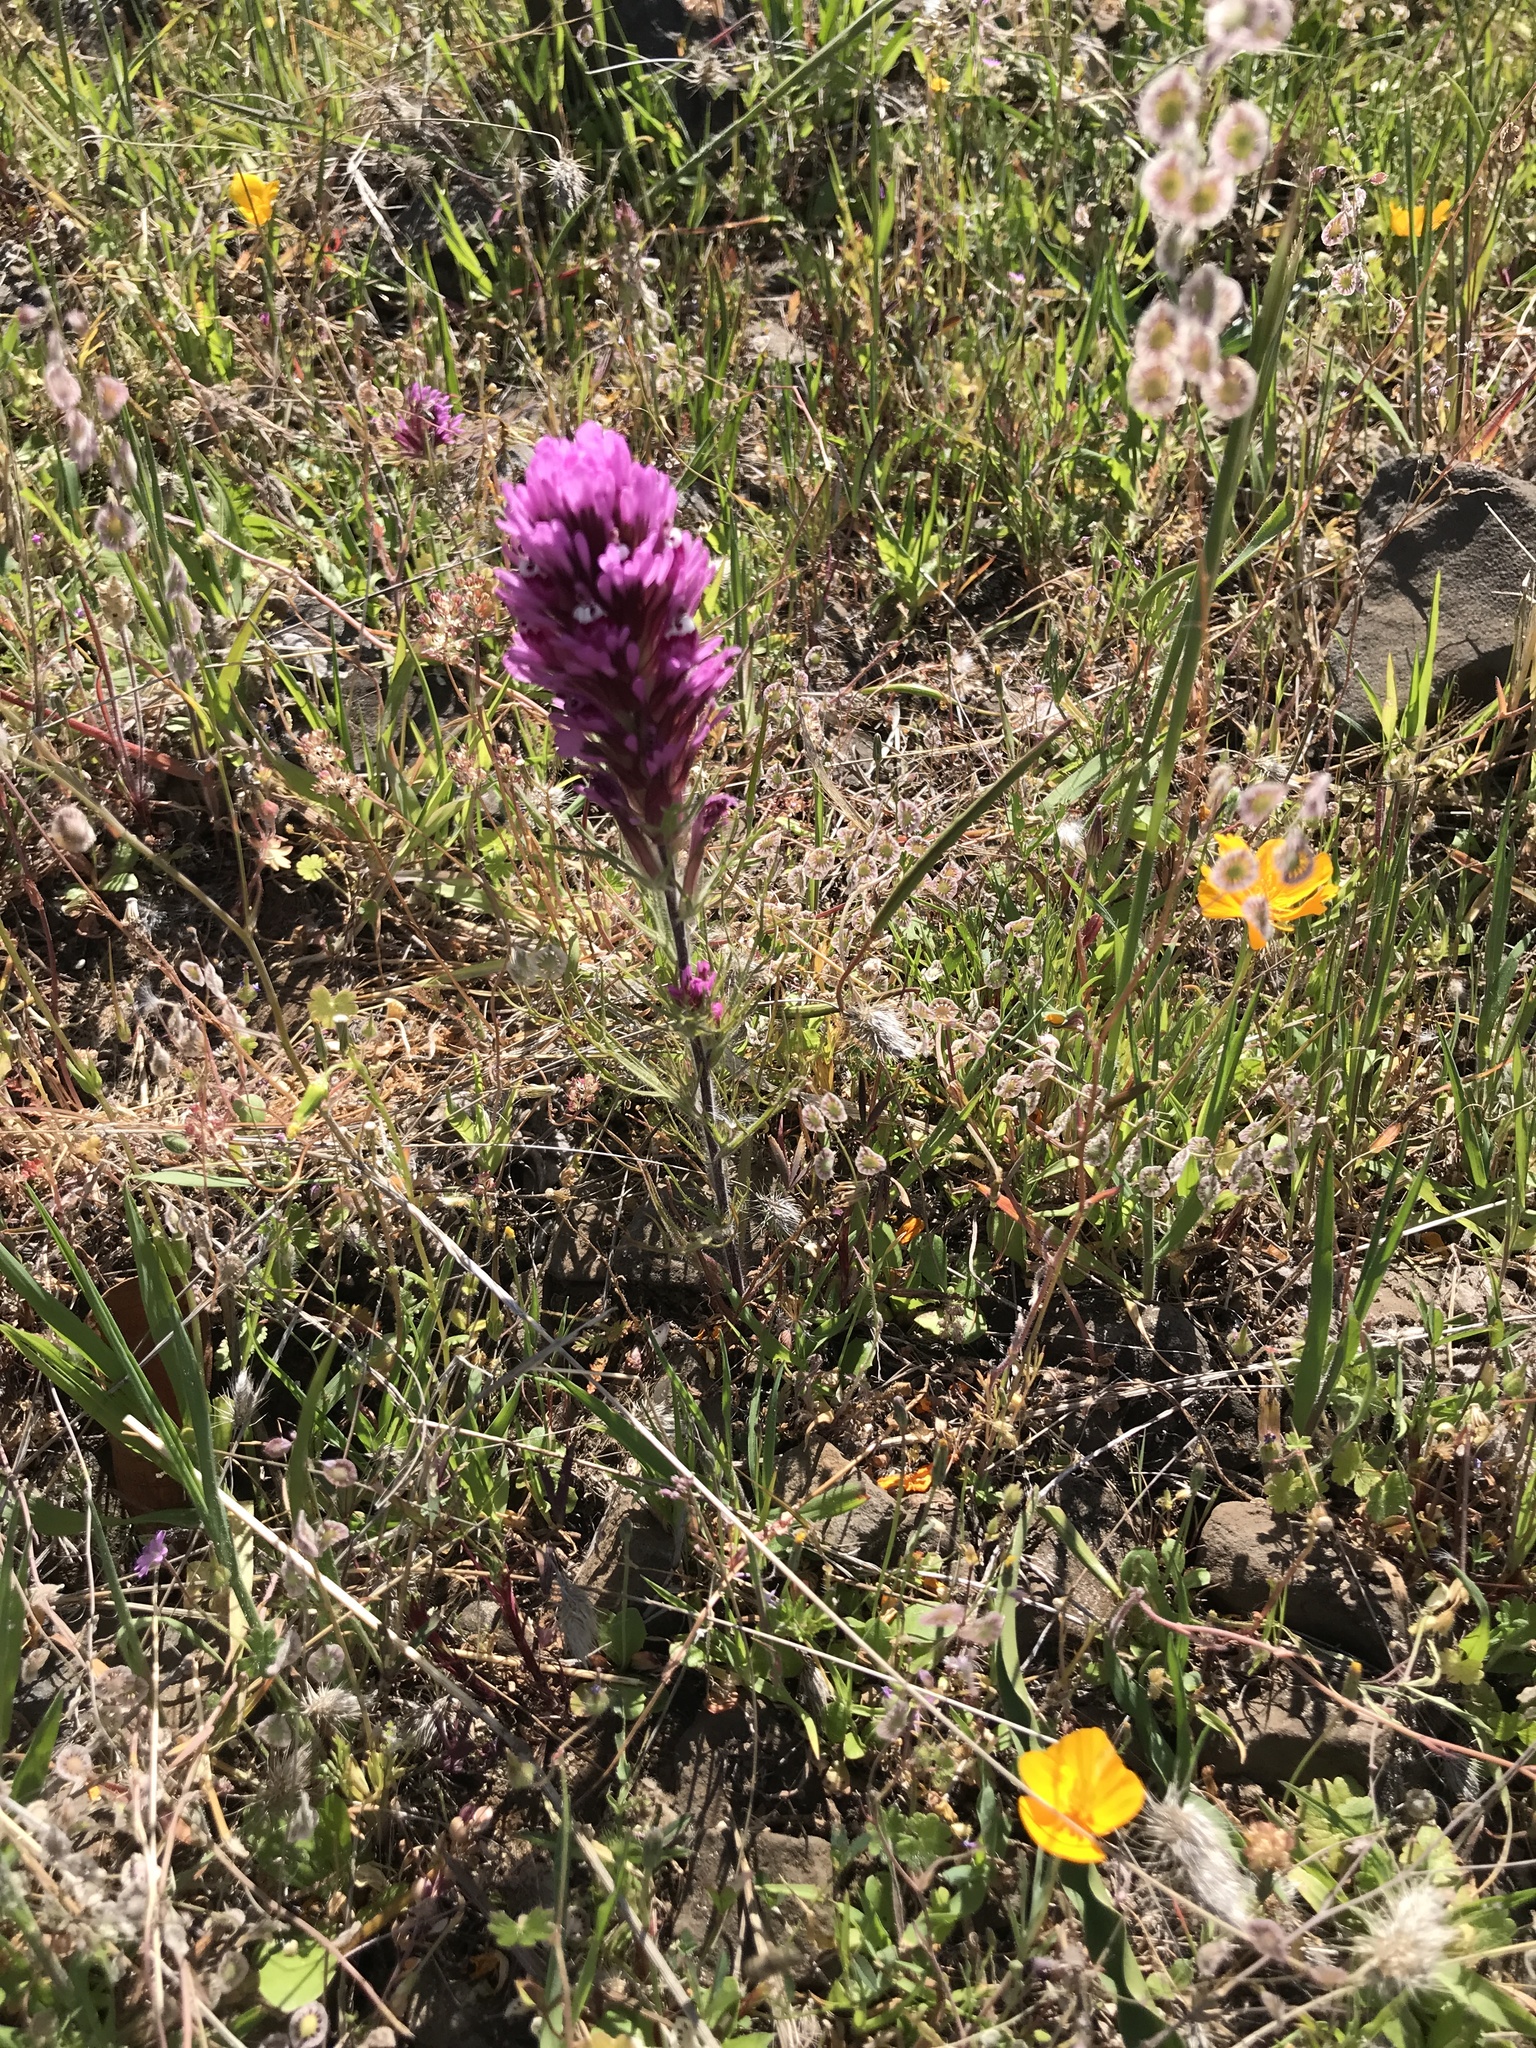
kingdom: Plantae
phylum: Tracheophyta
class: Magnoliopsida
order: Lamiales
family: Orobanchaceae
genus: Castilleja
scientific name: Castilleja exserta
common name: Purple owl-clover
